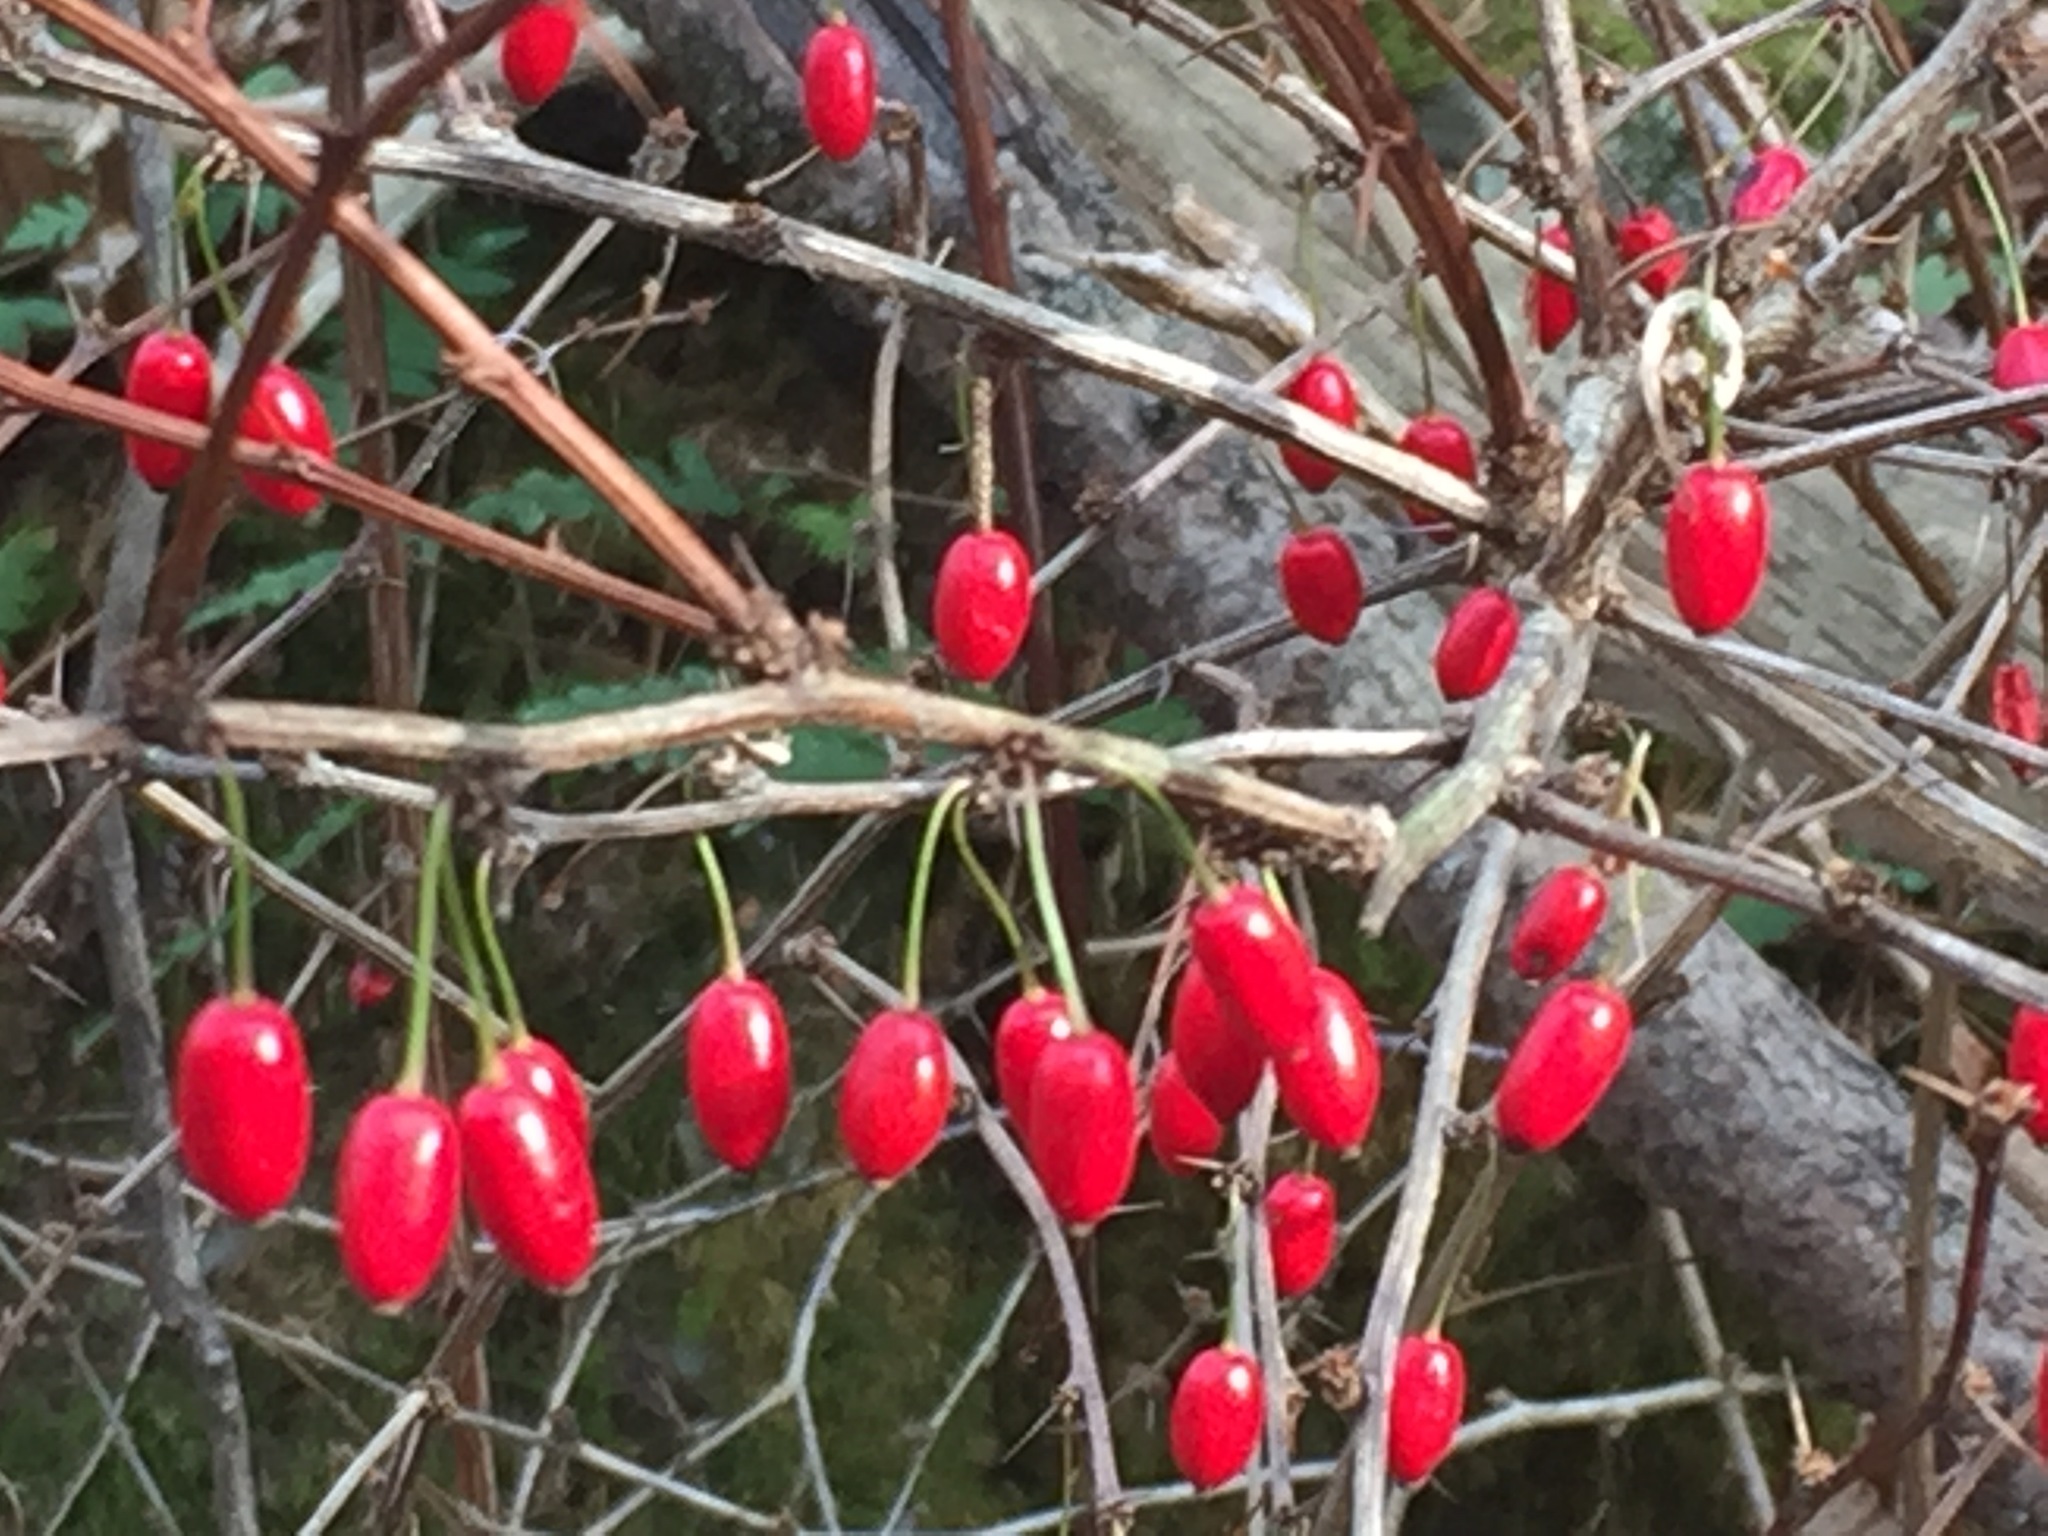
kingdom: Plantae
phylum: Tracheophyta
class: Magnoliopsida
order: Ranunculales
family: Berberidaceae
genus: Berberis
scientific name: Berberis thunbergii
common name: Japanese barberry
